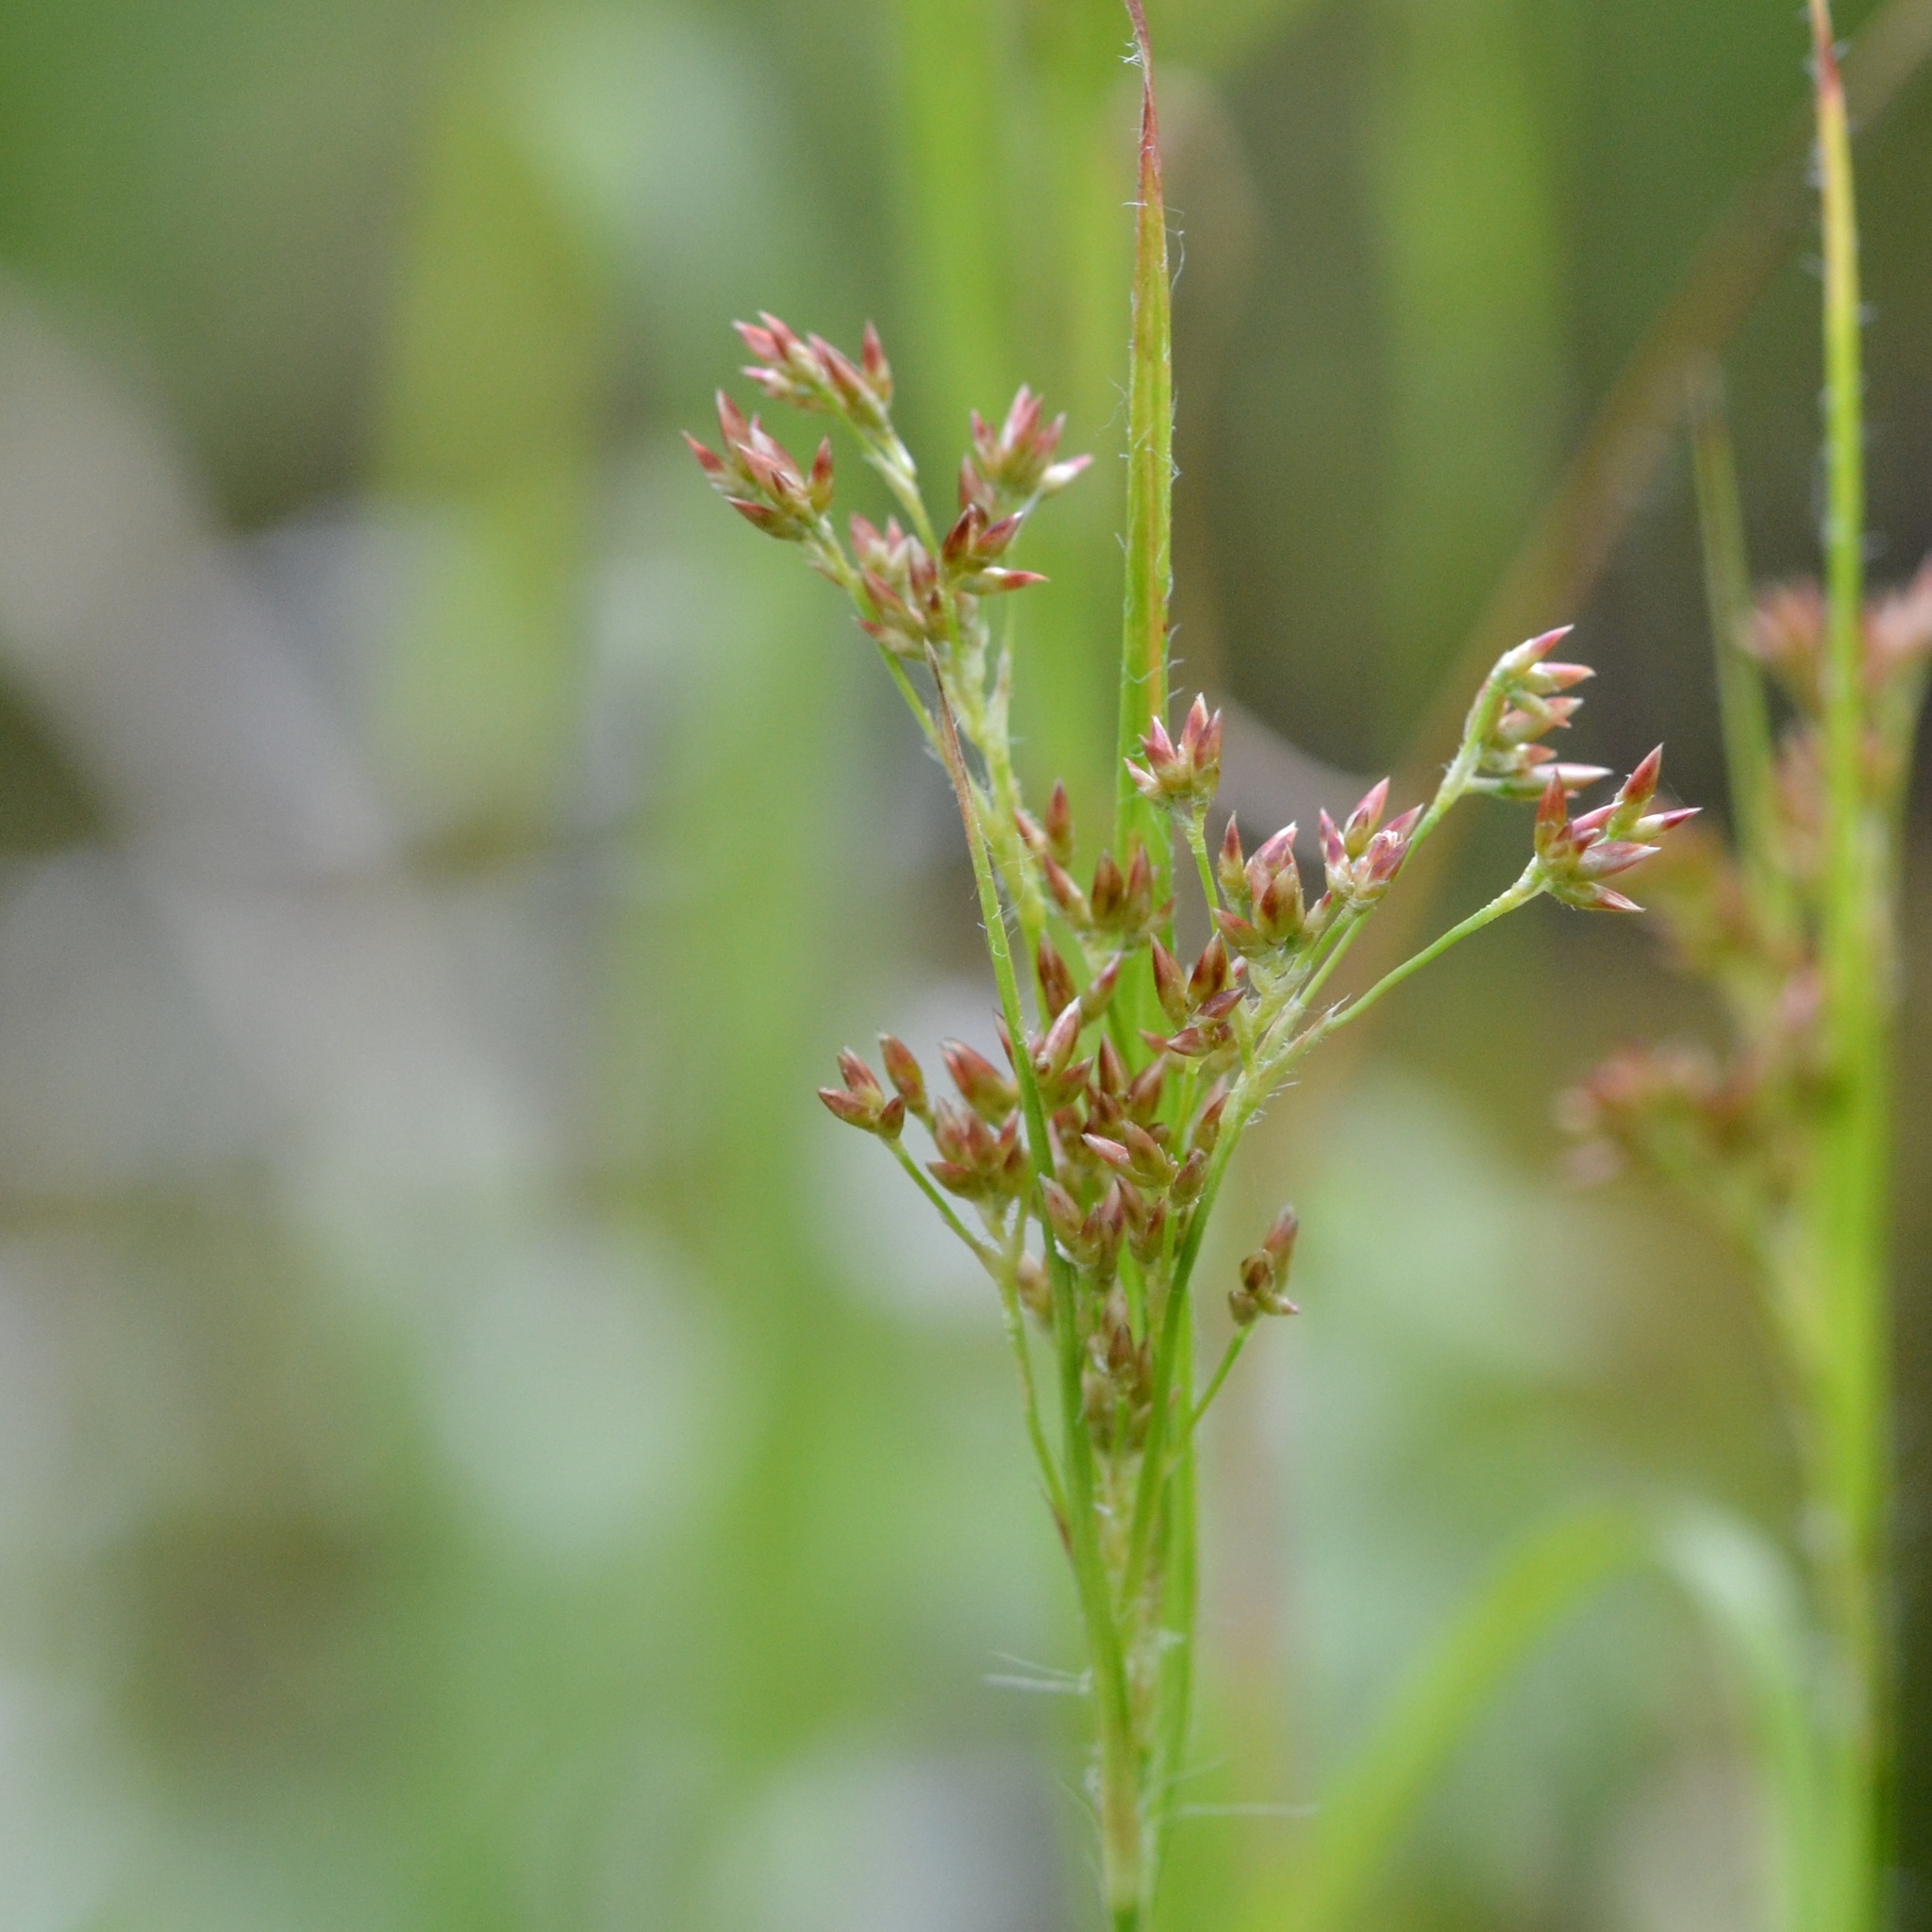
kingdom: Plantae
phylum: Tracheophyta
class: Liliopsida
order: Poales
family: Juncaceae
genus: Luzula
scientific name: Luzula luzuloides
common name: White wood-rush
